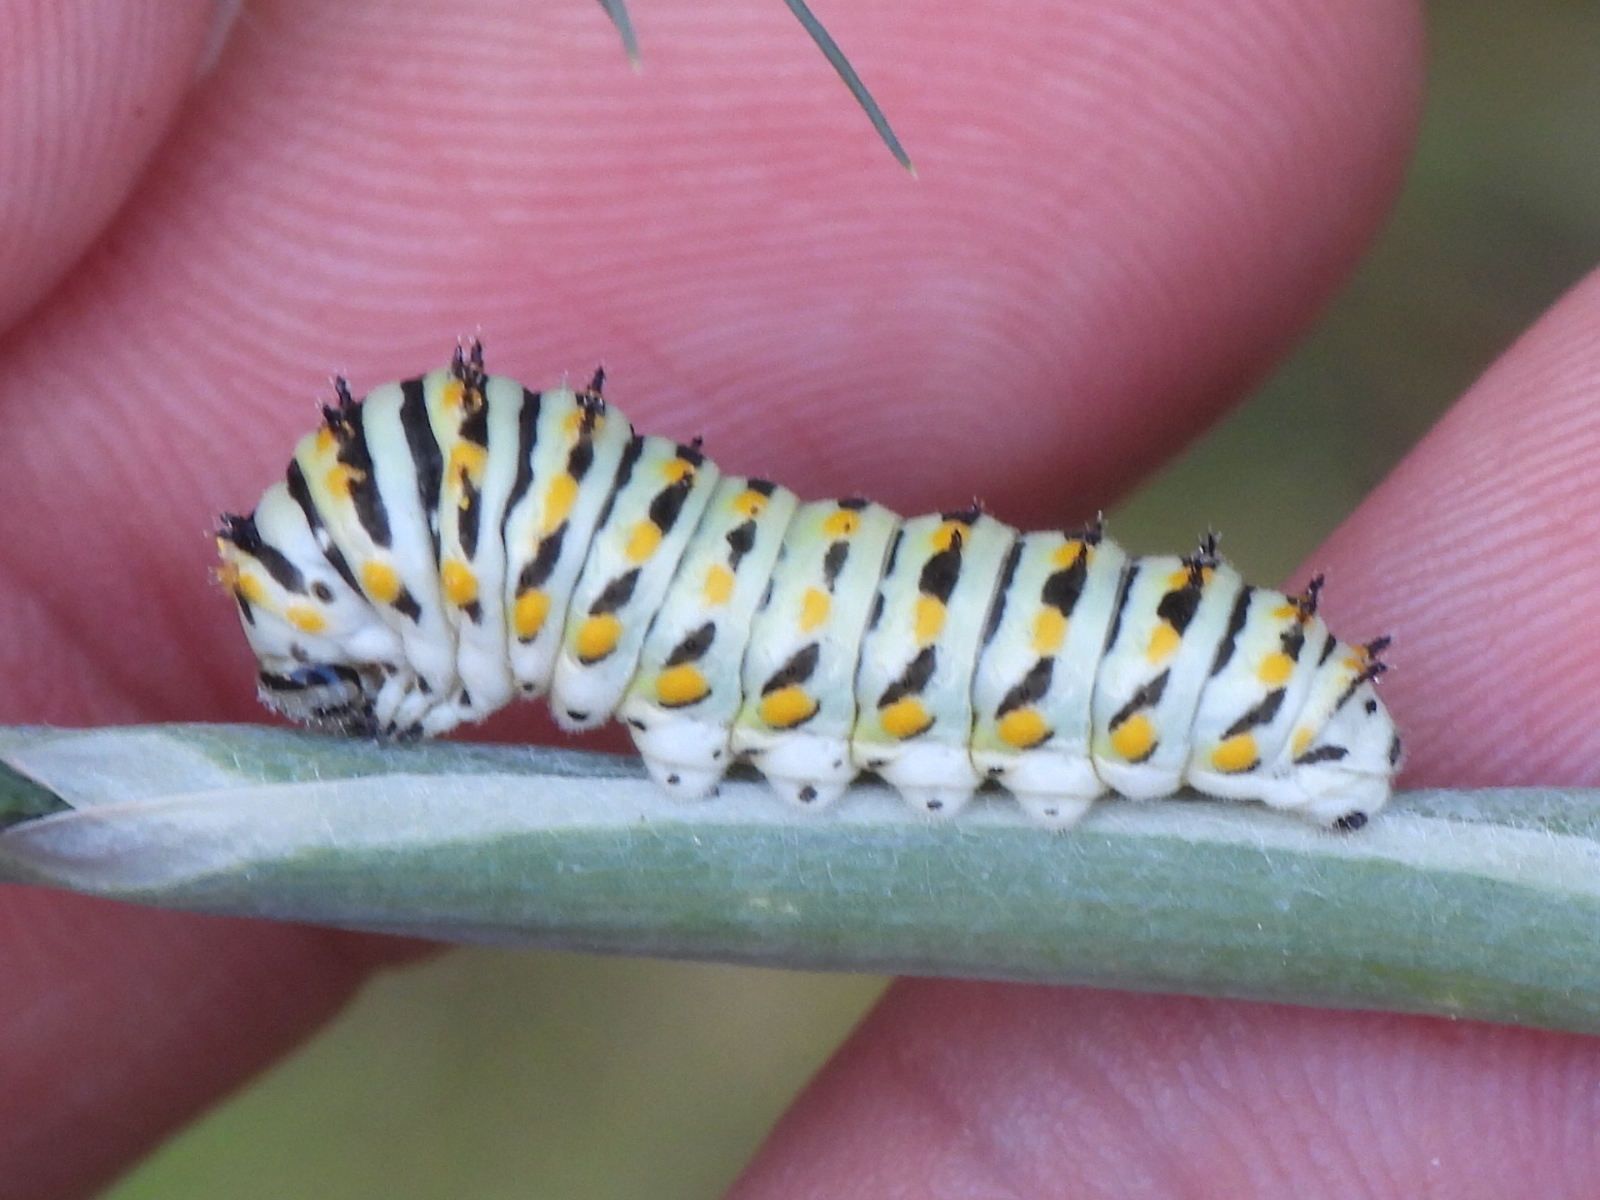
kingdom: Animalia
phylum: Arthropoda
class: Insecta
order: Lepidoptera
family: Papilionidae
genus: Papilio
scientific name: Papilio polyxenes
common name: Black swallowtail
